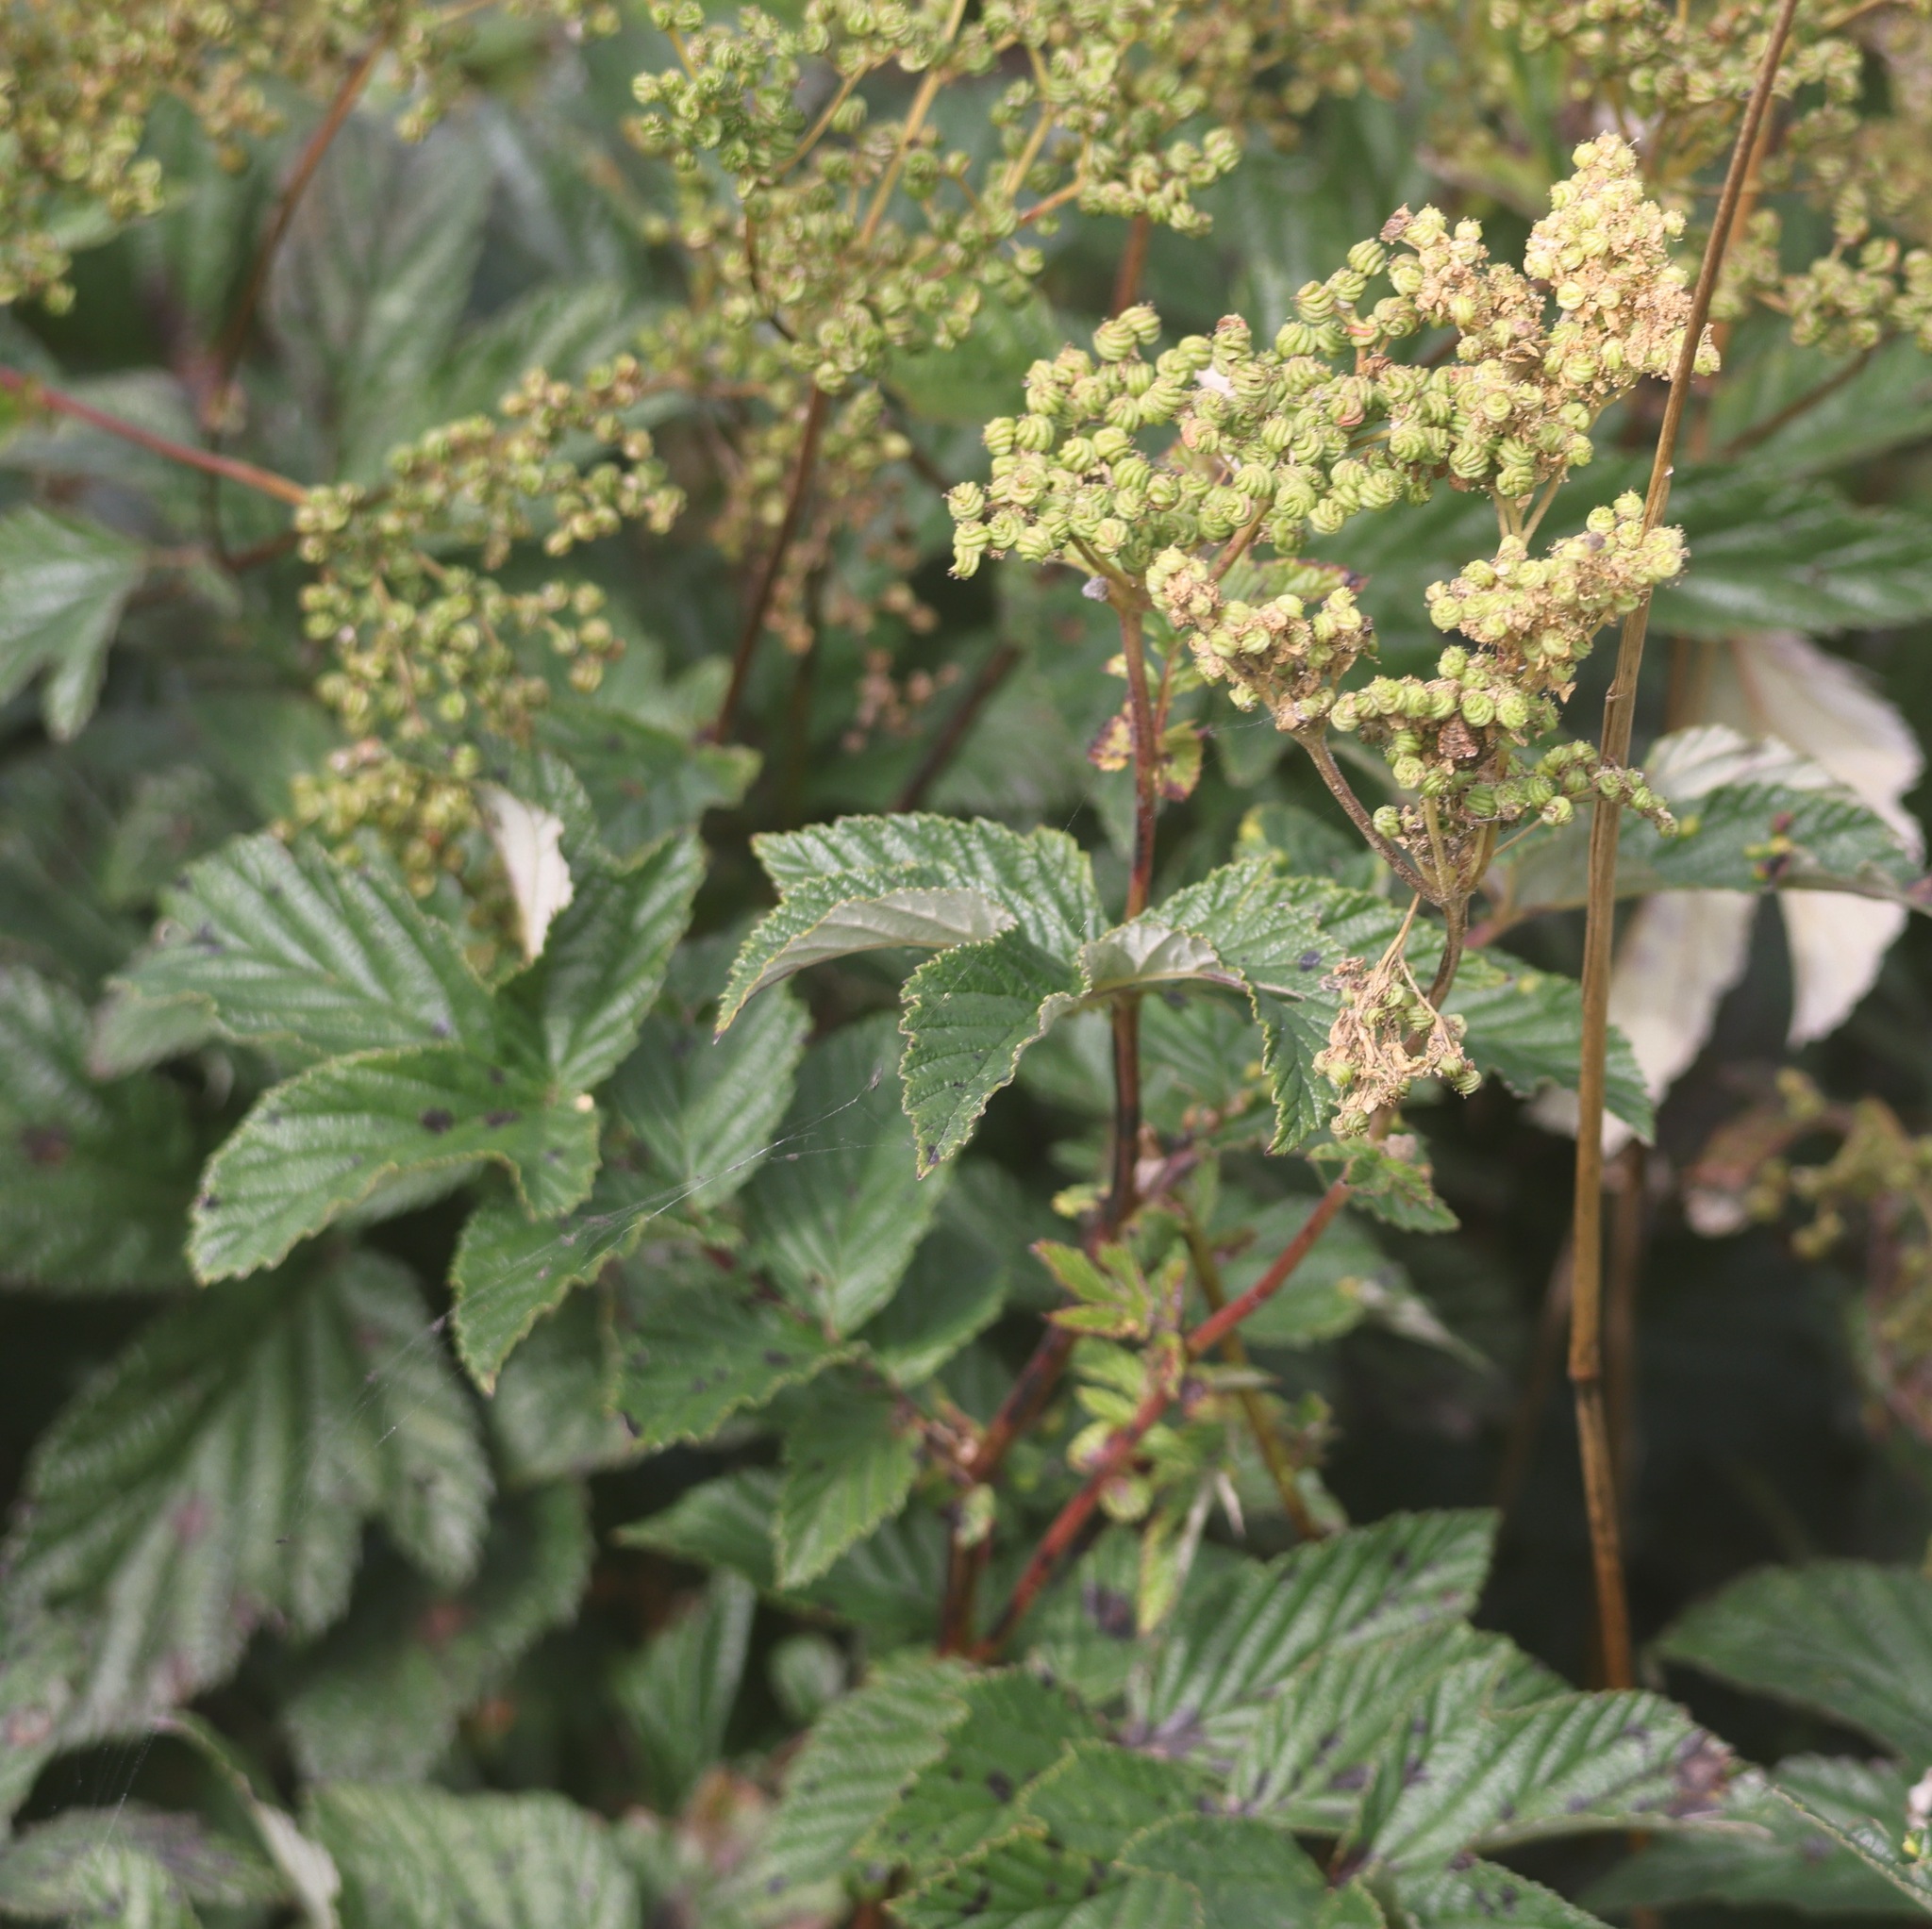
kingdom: Plantae
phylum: Tracheophyta
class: Magnoliopsida
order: Rosales
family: Rosaceae
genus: Filipendula
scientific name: Filipendula ulmaria
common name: Meadowsweet
